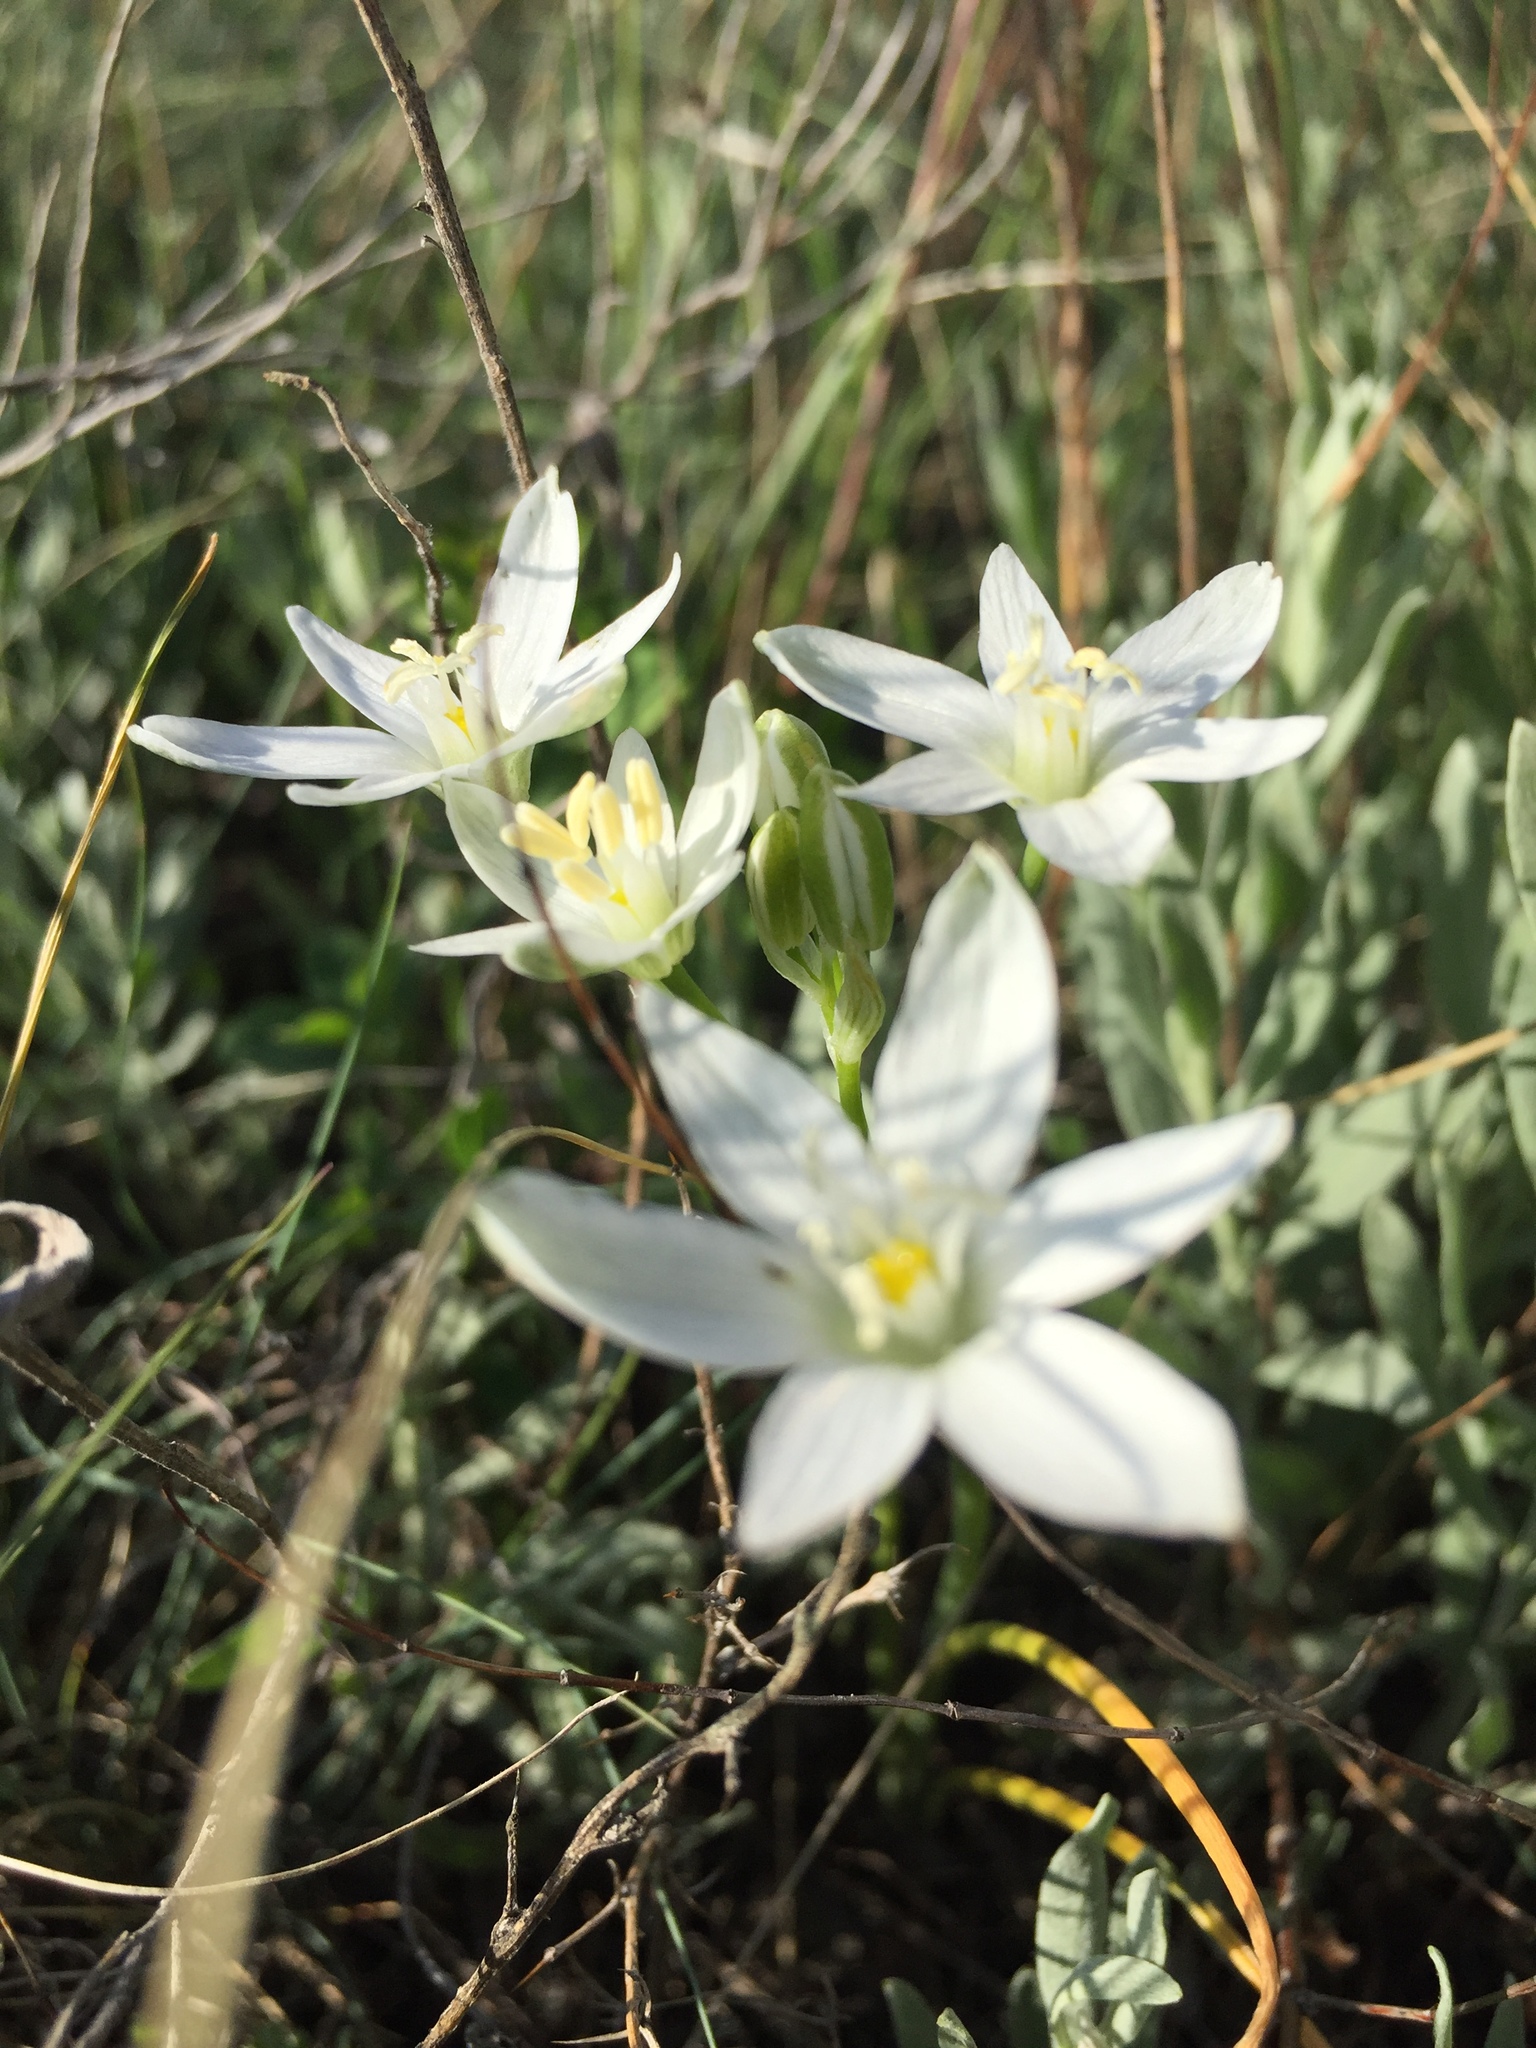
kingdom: Plantae
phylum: Tracheophyta
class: Liliopsida
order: Asparagales
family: Asparagaceae
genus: Ornithogalum
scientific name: Ornithogalum orthophyllum
